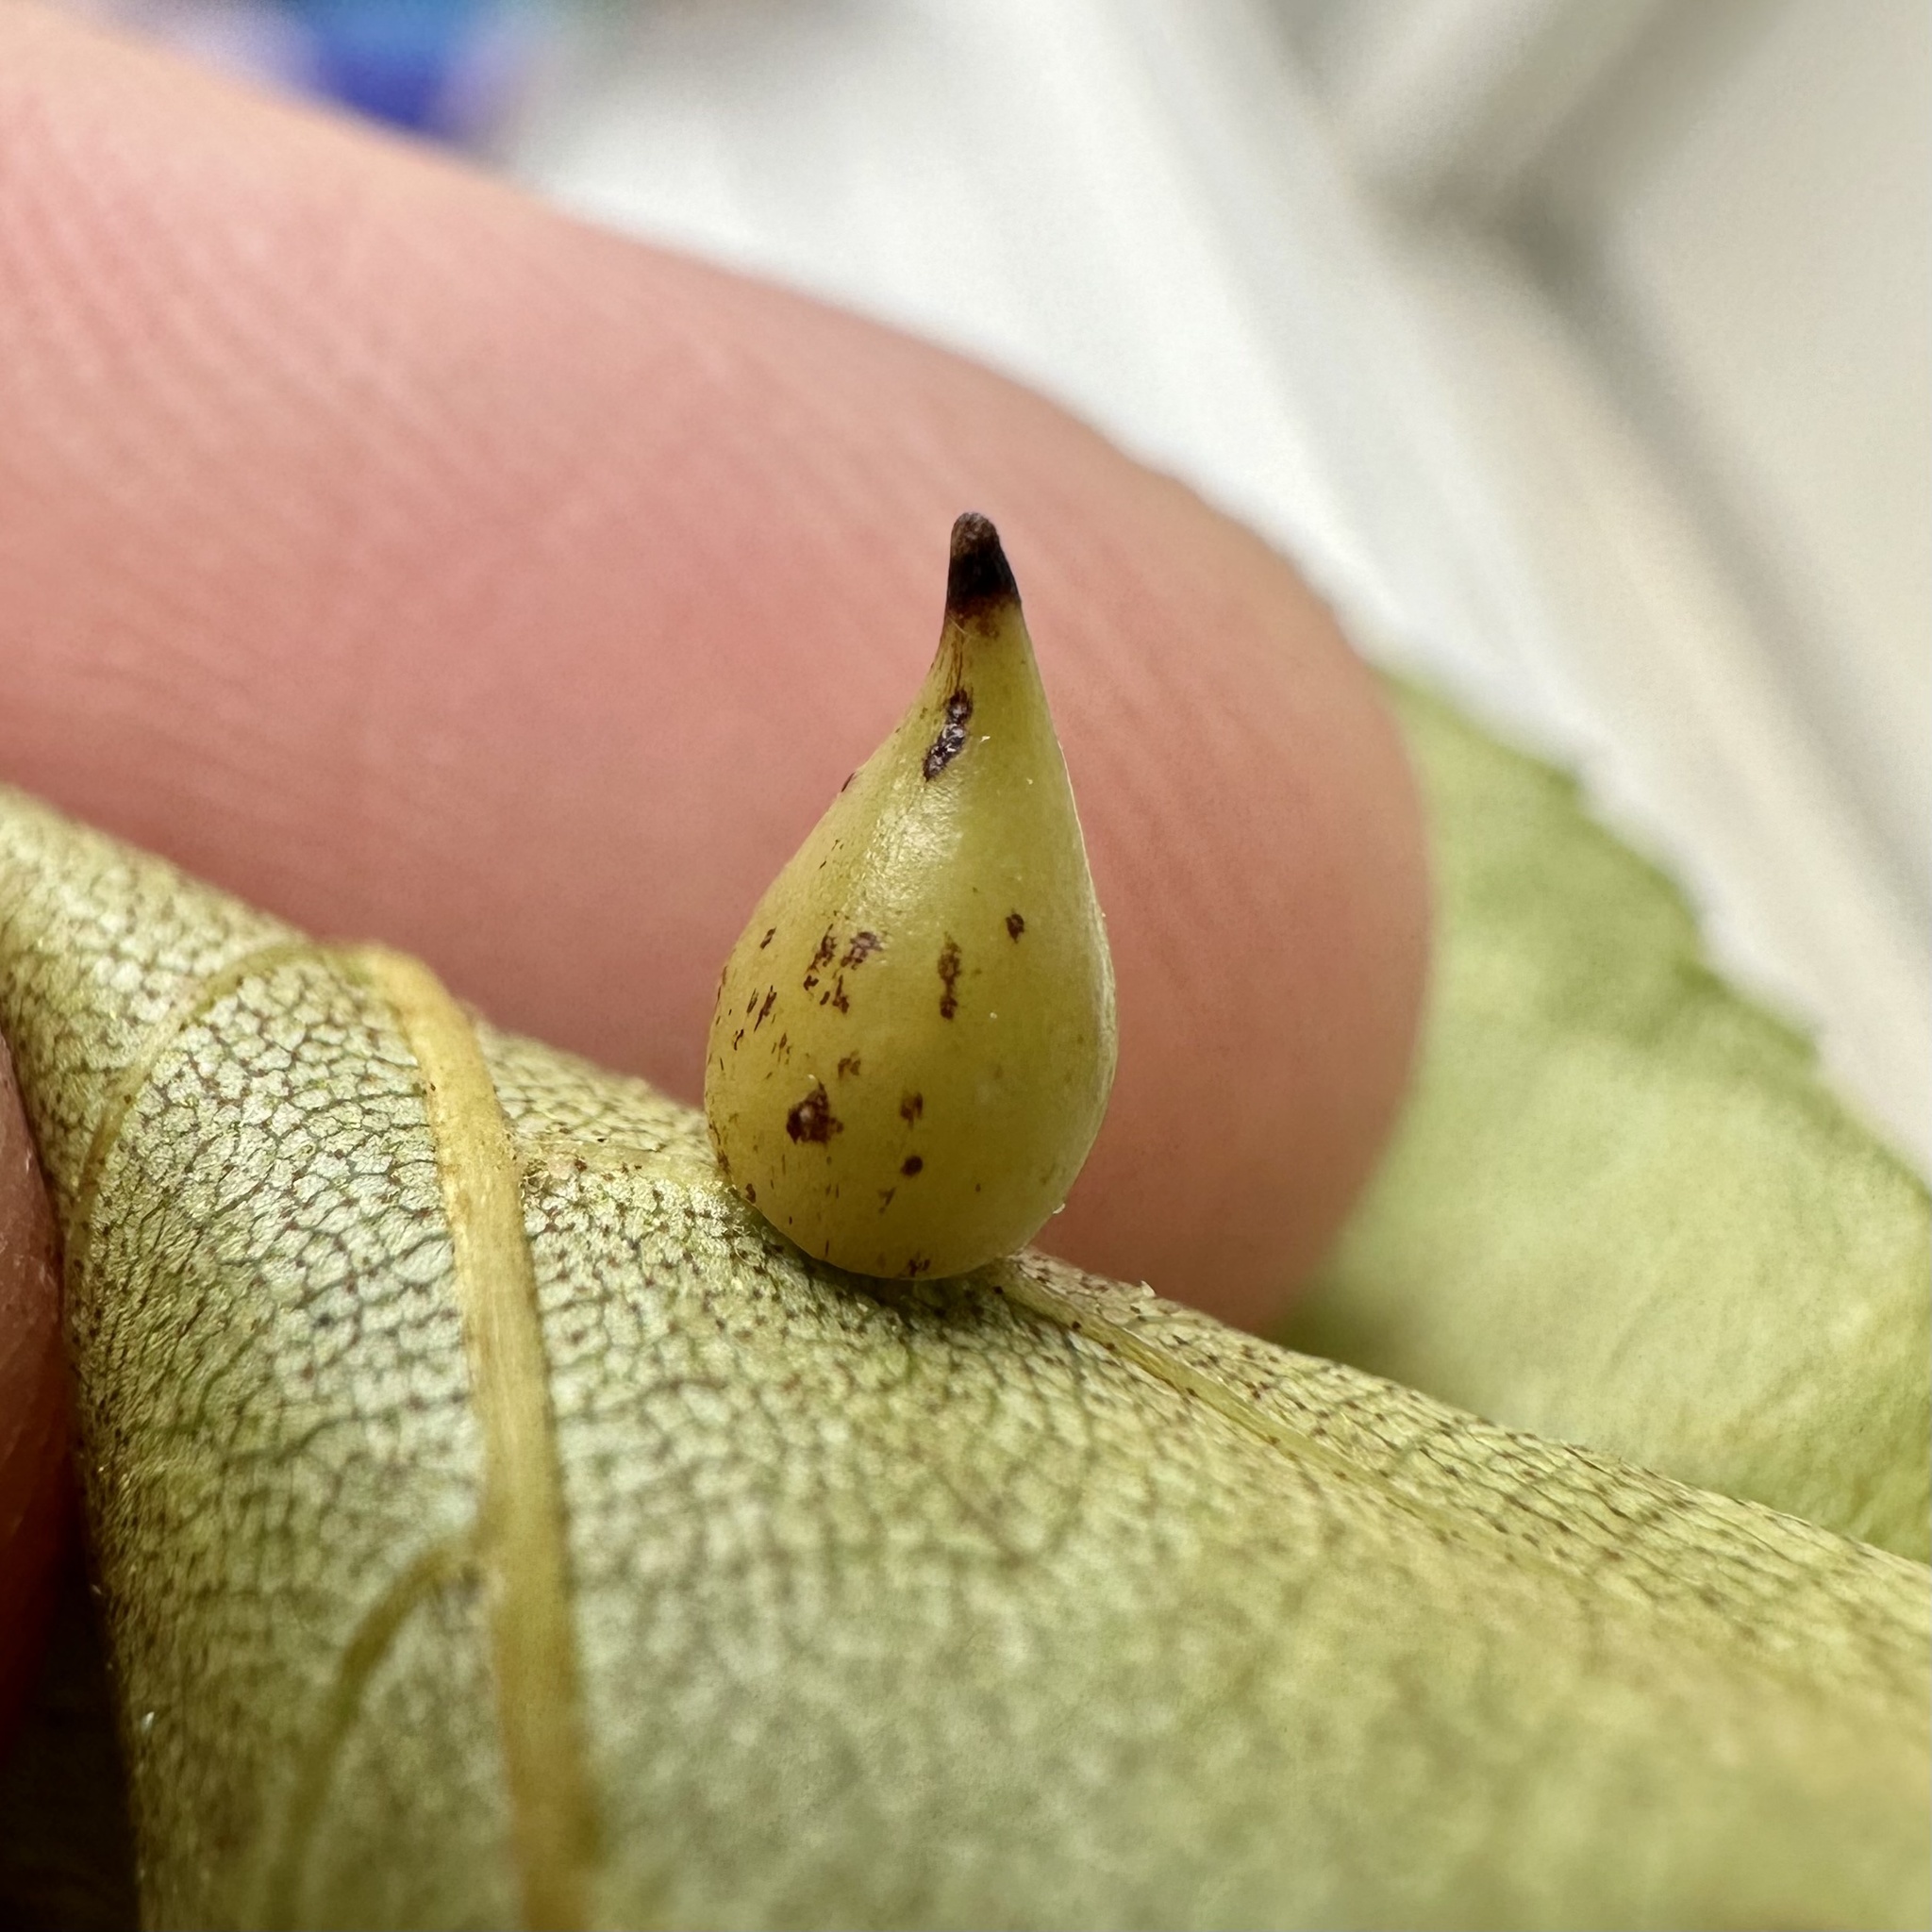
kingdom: Animalia
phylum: Arthropoda
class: Insecta
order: Diptera
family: Cecidomyiidae
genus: Caryomyia
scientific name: Caryomyia caryaecola
